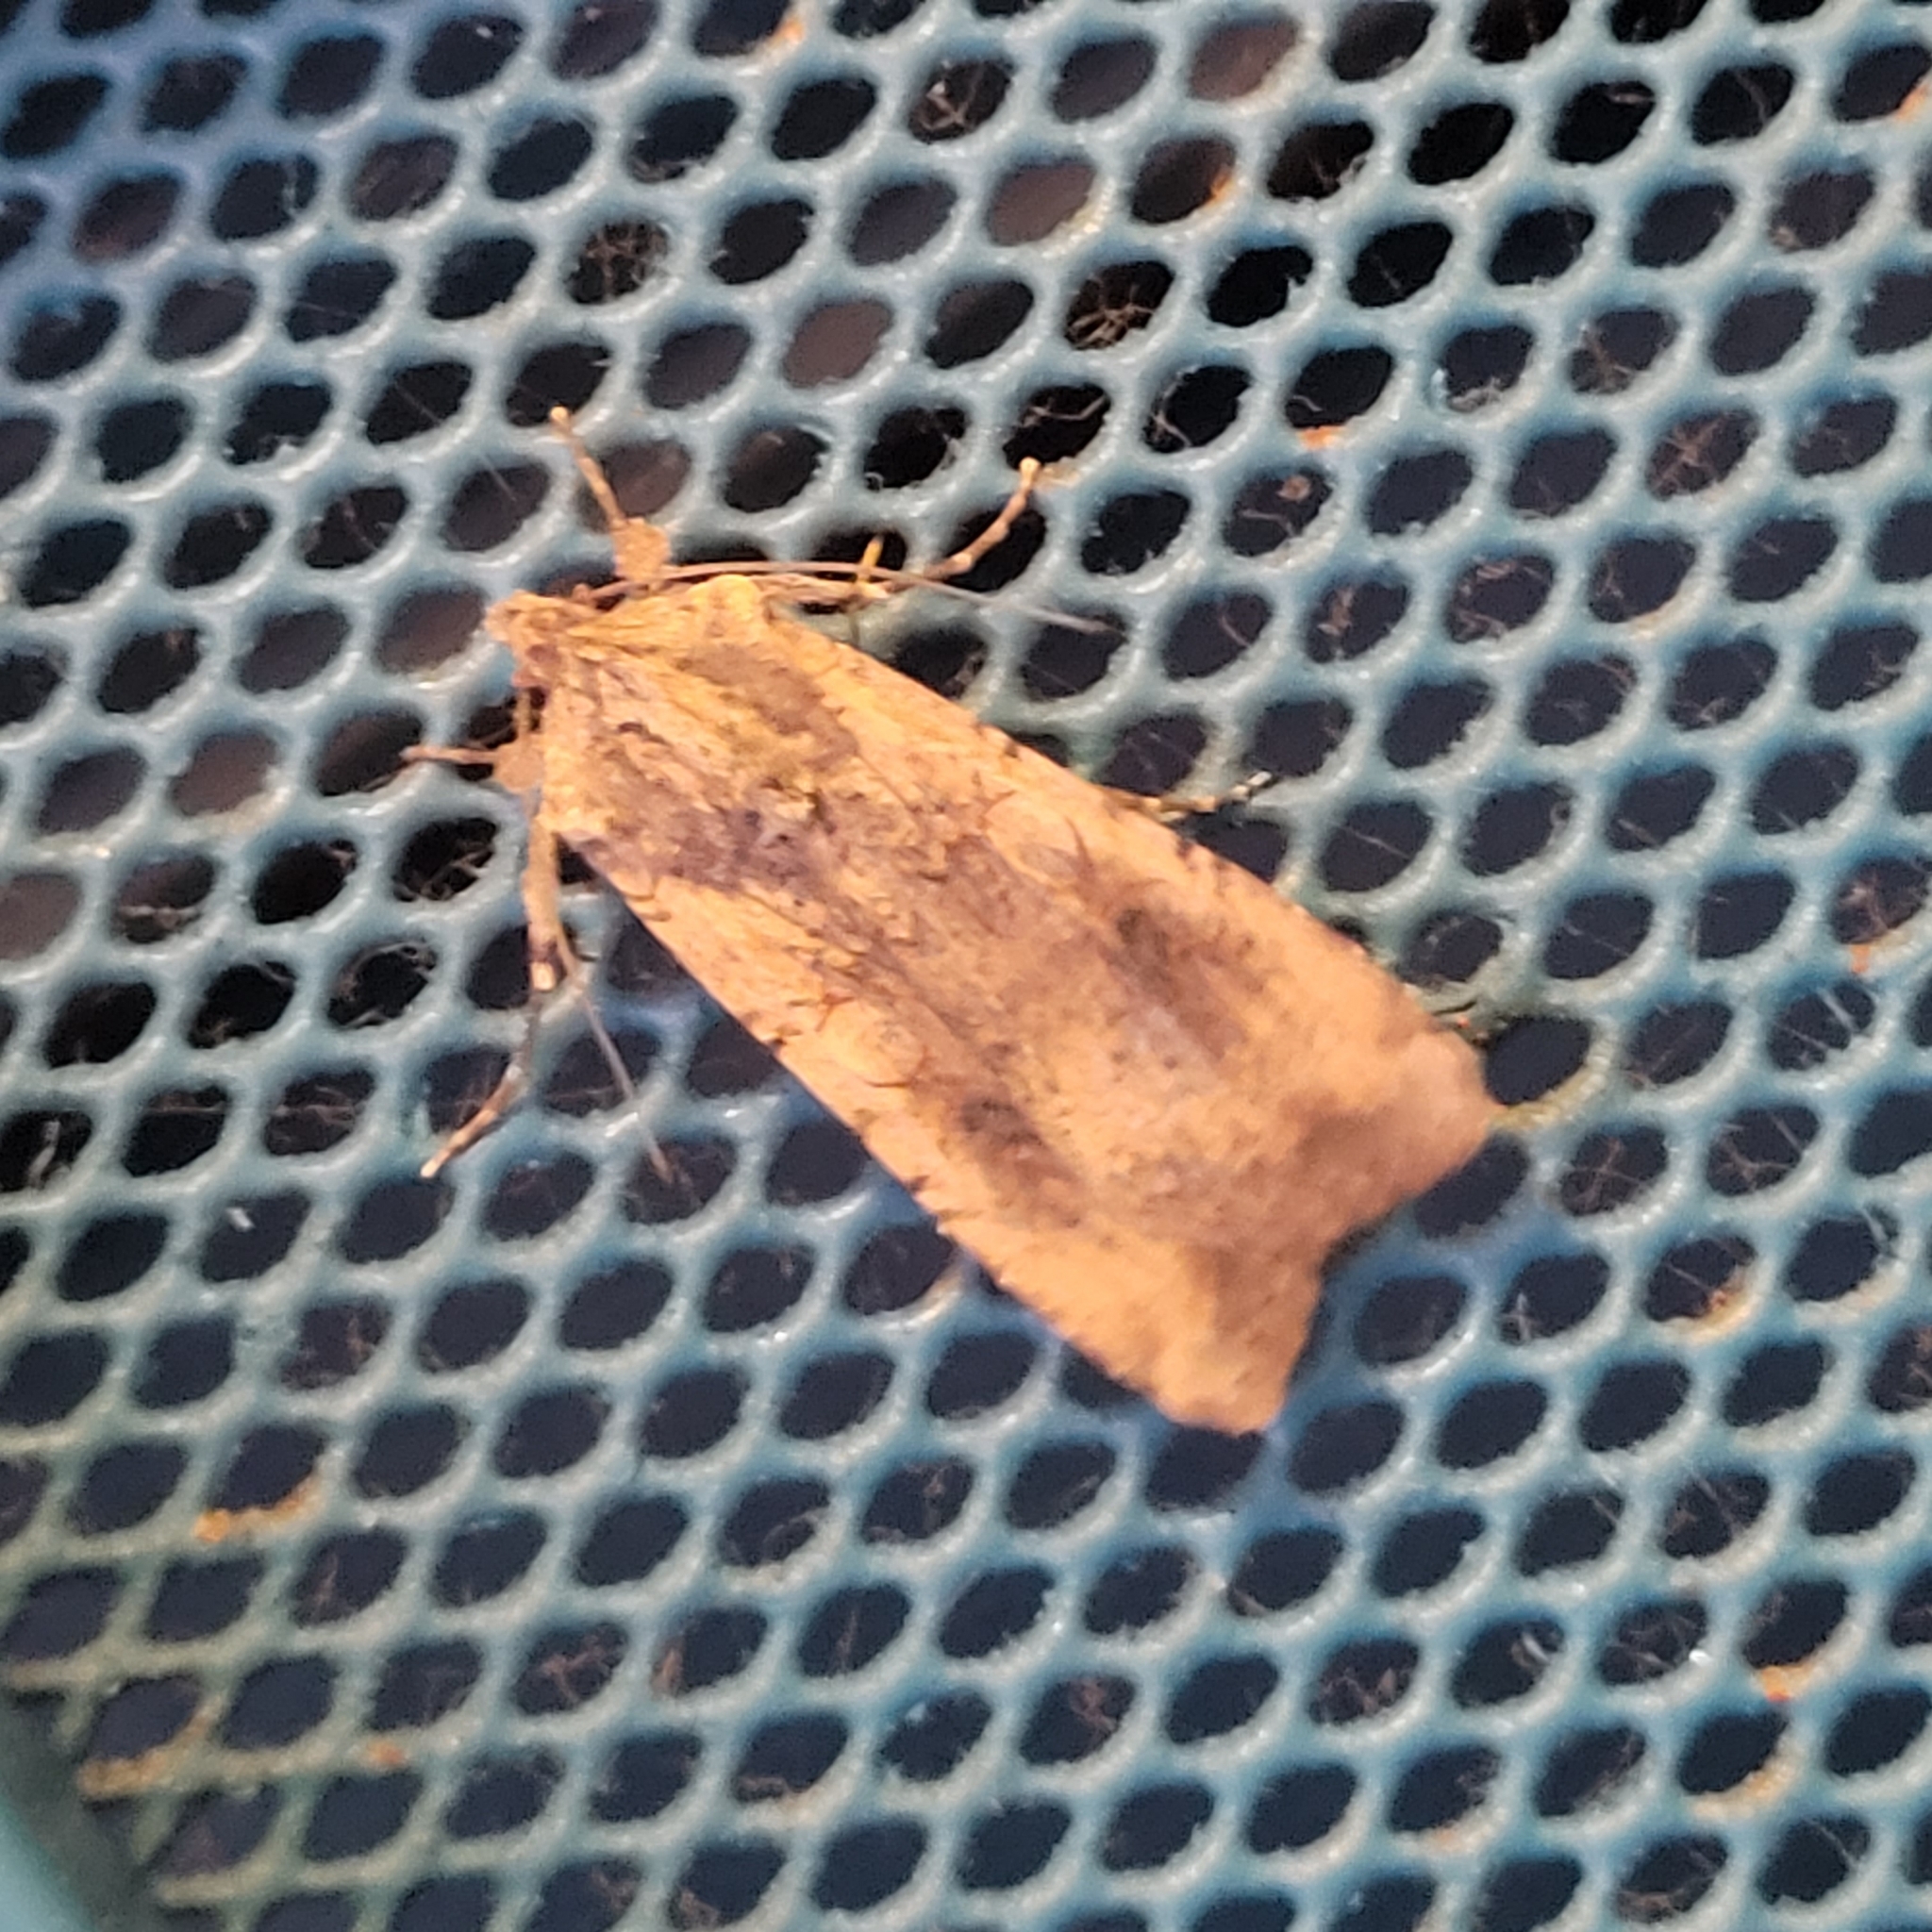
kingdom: Animalia
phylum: Arthropoda
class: Insecta
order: Lepidoptera
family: Noctuidae
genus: Peridroma
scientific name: Peridroma saucia
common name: Pearly underwing
